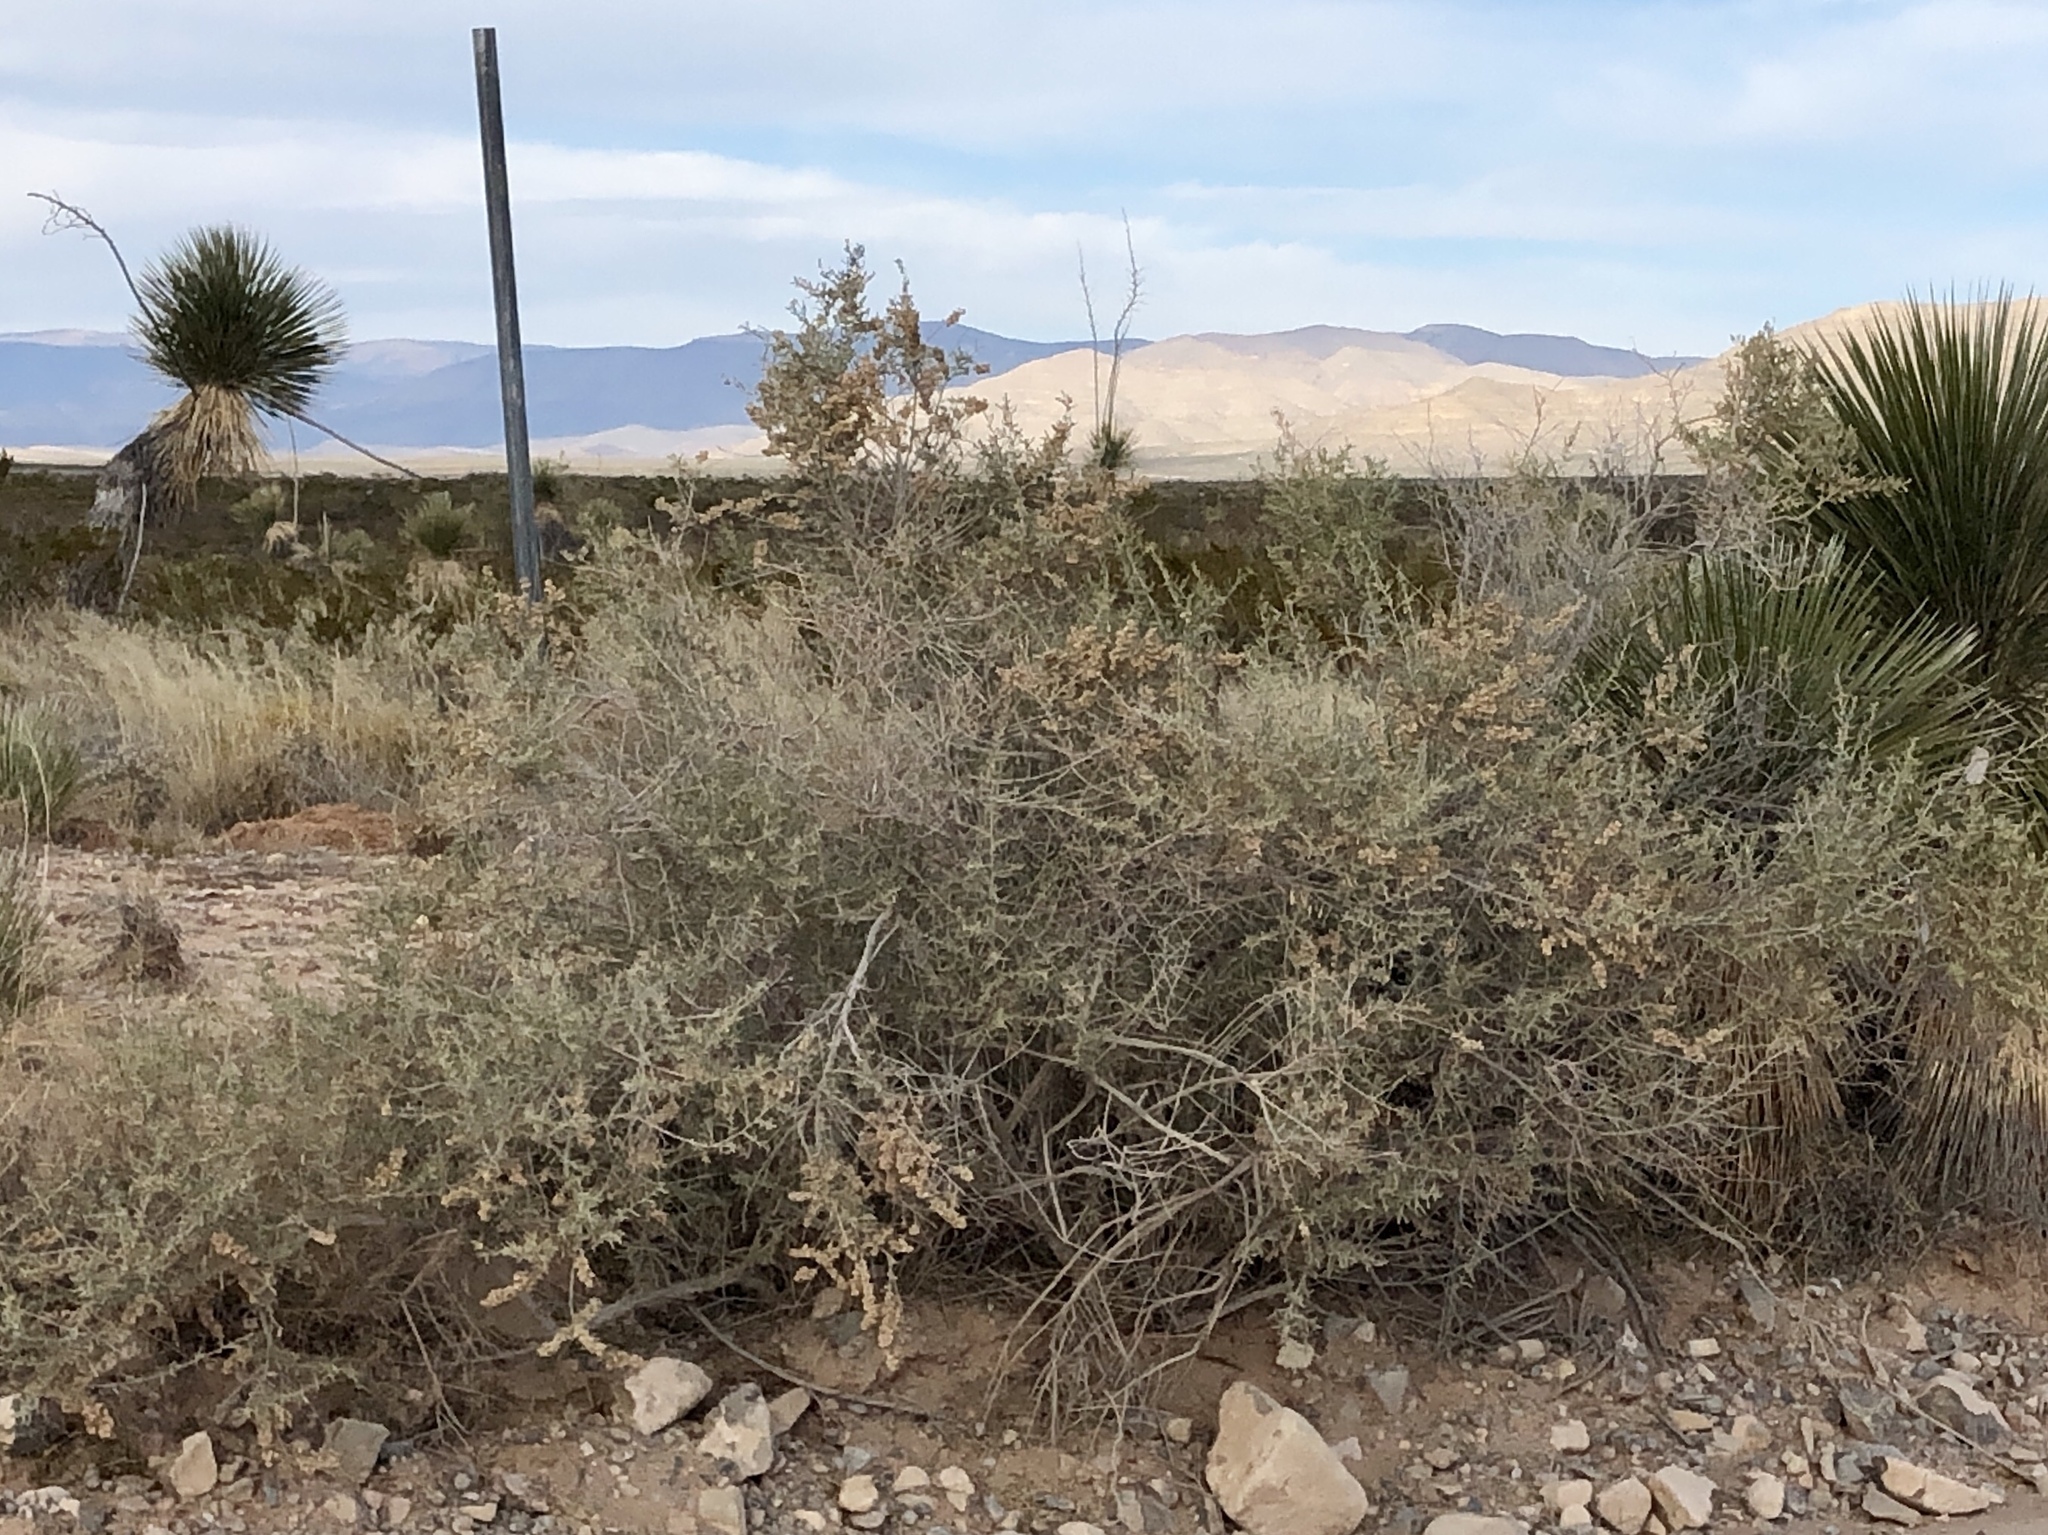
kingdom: Plantae
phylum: Tracheophyta
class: Magnoliopsida
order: Caryophyllales
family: Amaranthaceae
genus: Atriplex
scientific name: Atriplex canescens
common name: Four-wing saltbush
